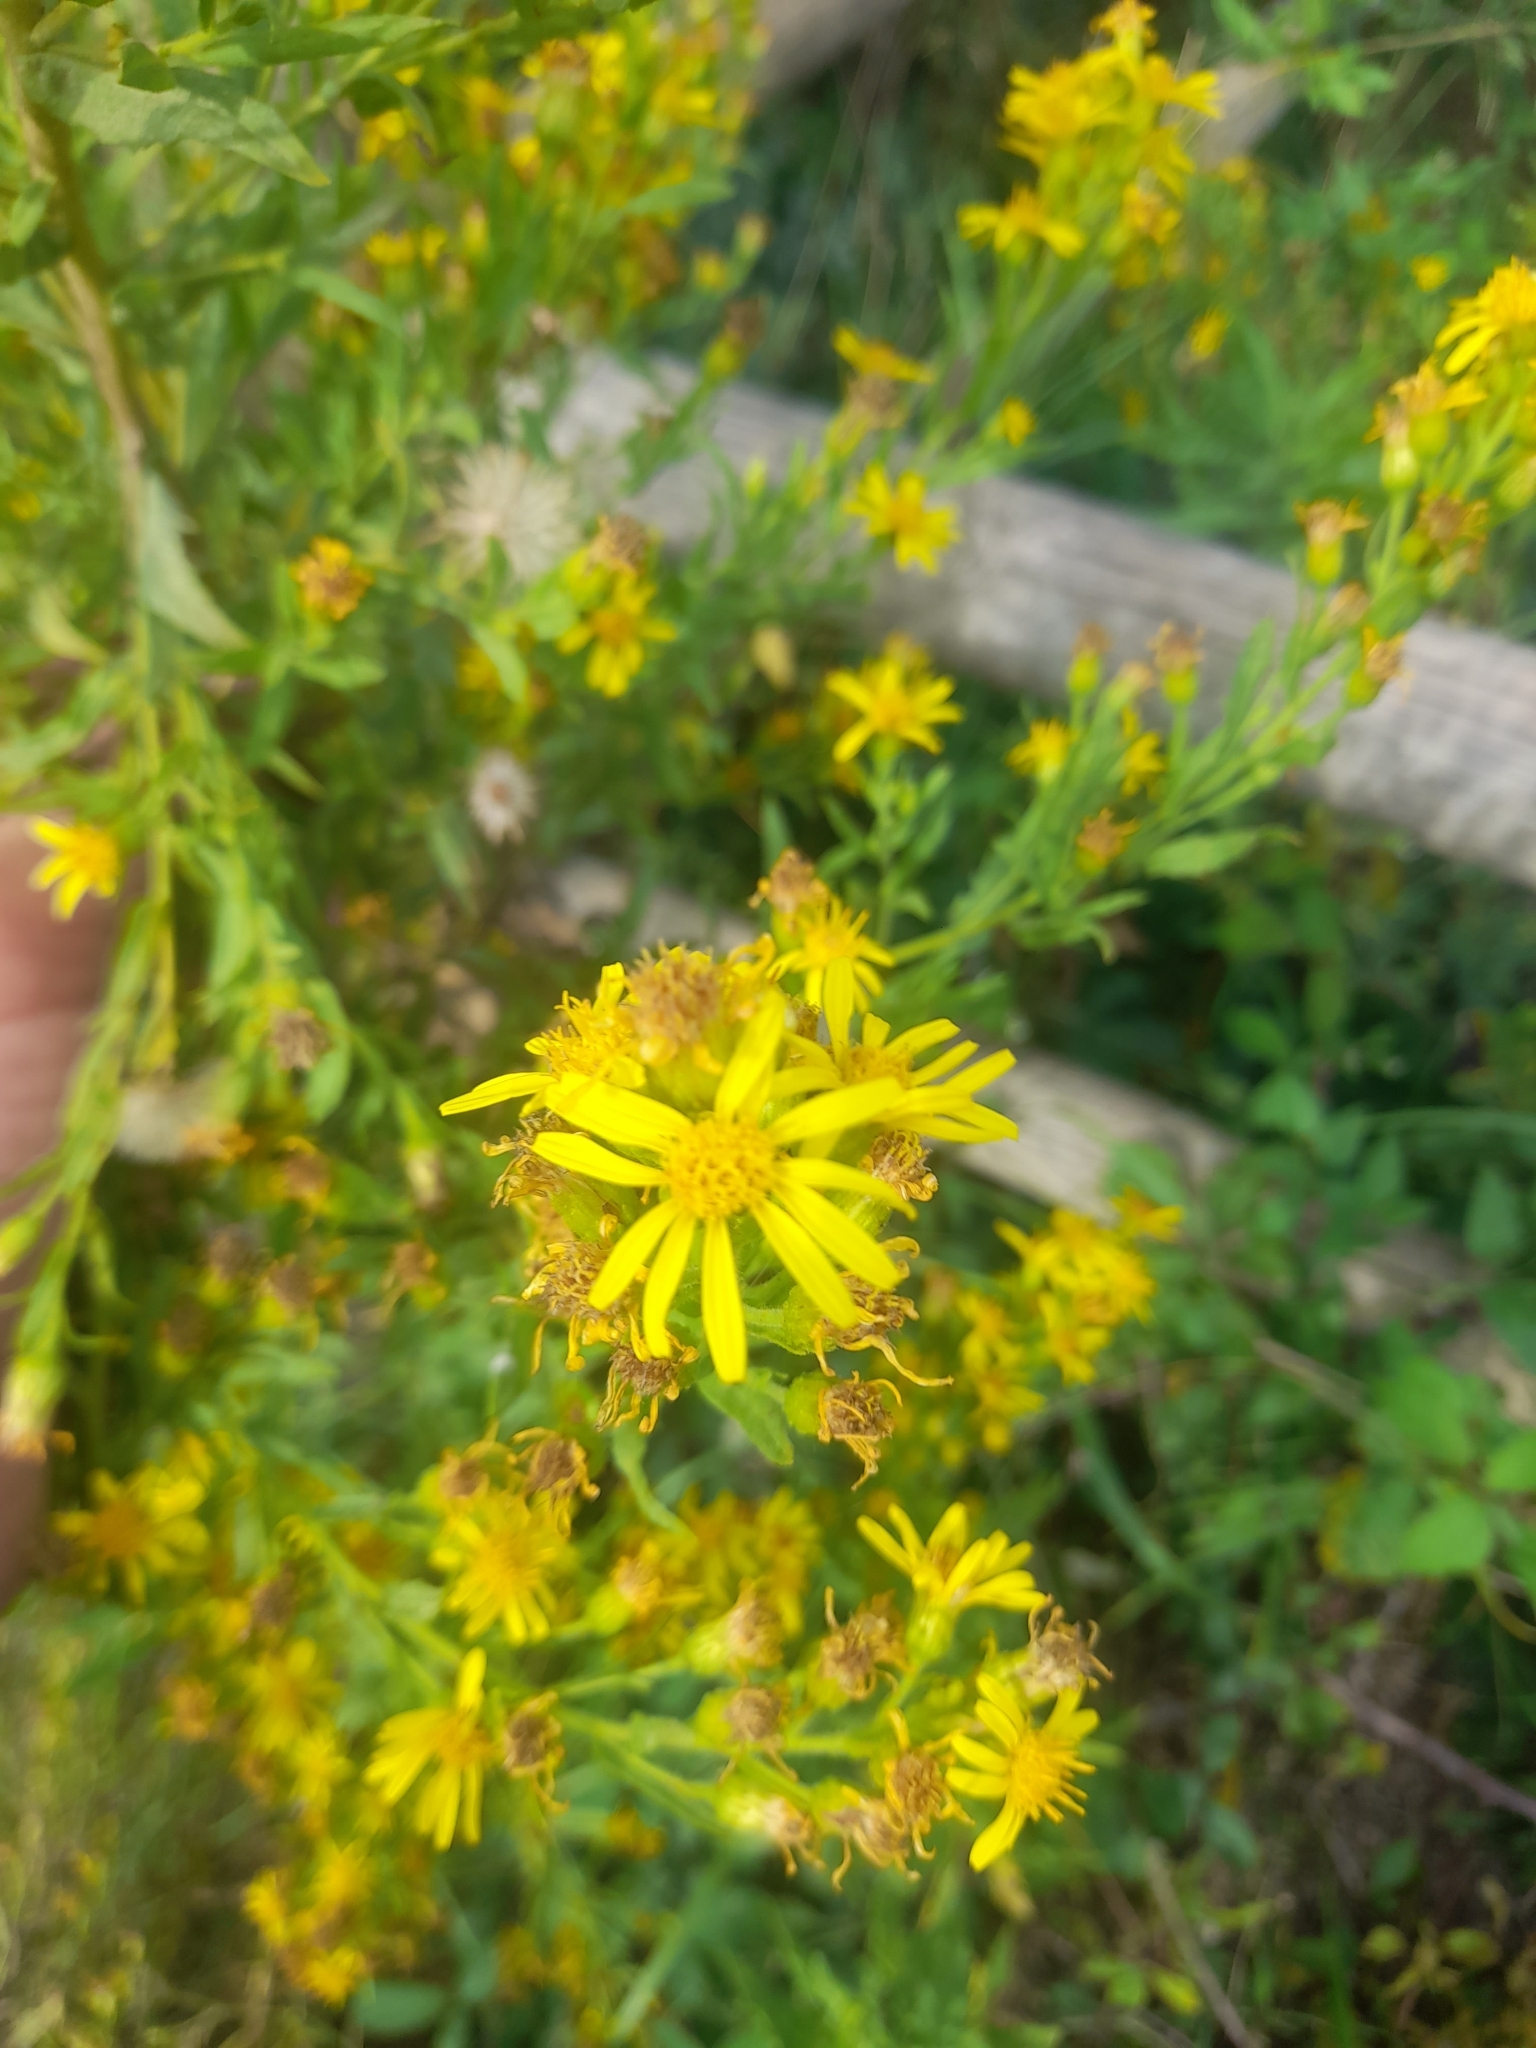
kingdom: Plantae
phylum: Tracheophyta
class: Magnoliopsida
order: Asterales
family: Asteraceae
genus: Dittrichia
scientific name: Dittrichia viscosa
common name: Woody fleabane
